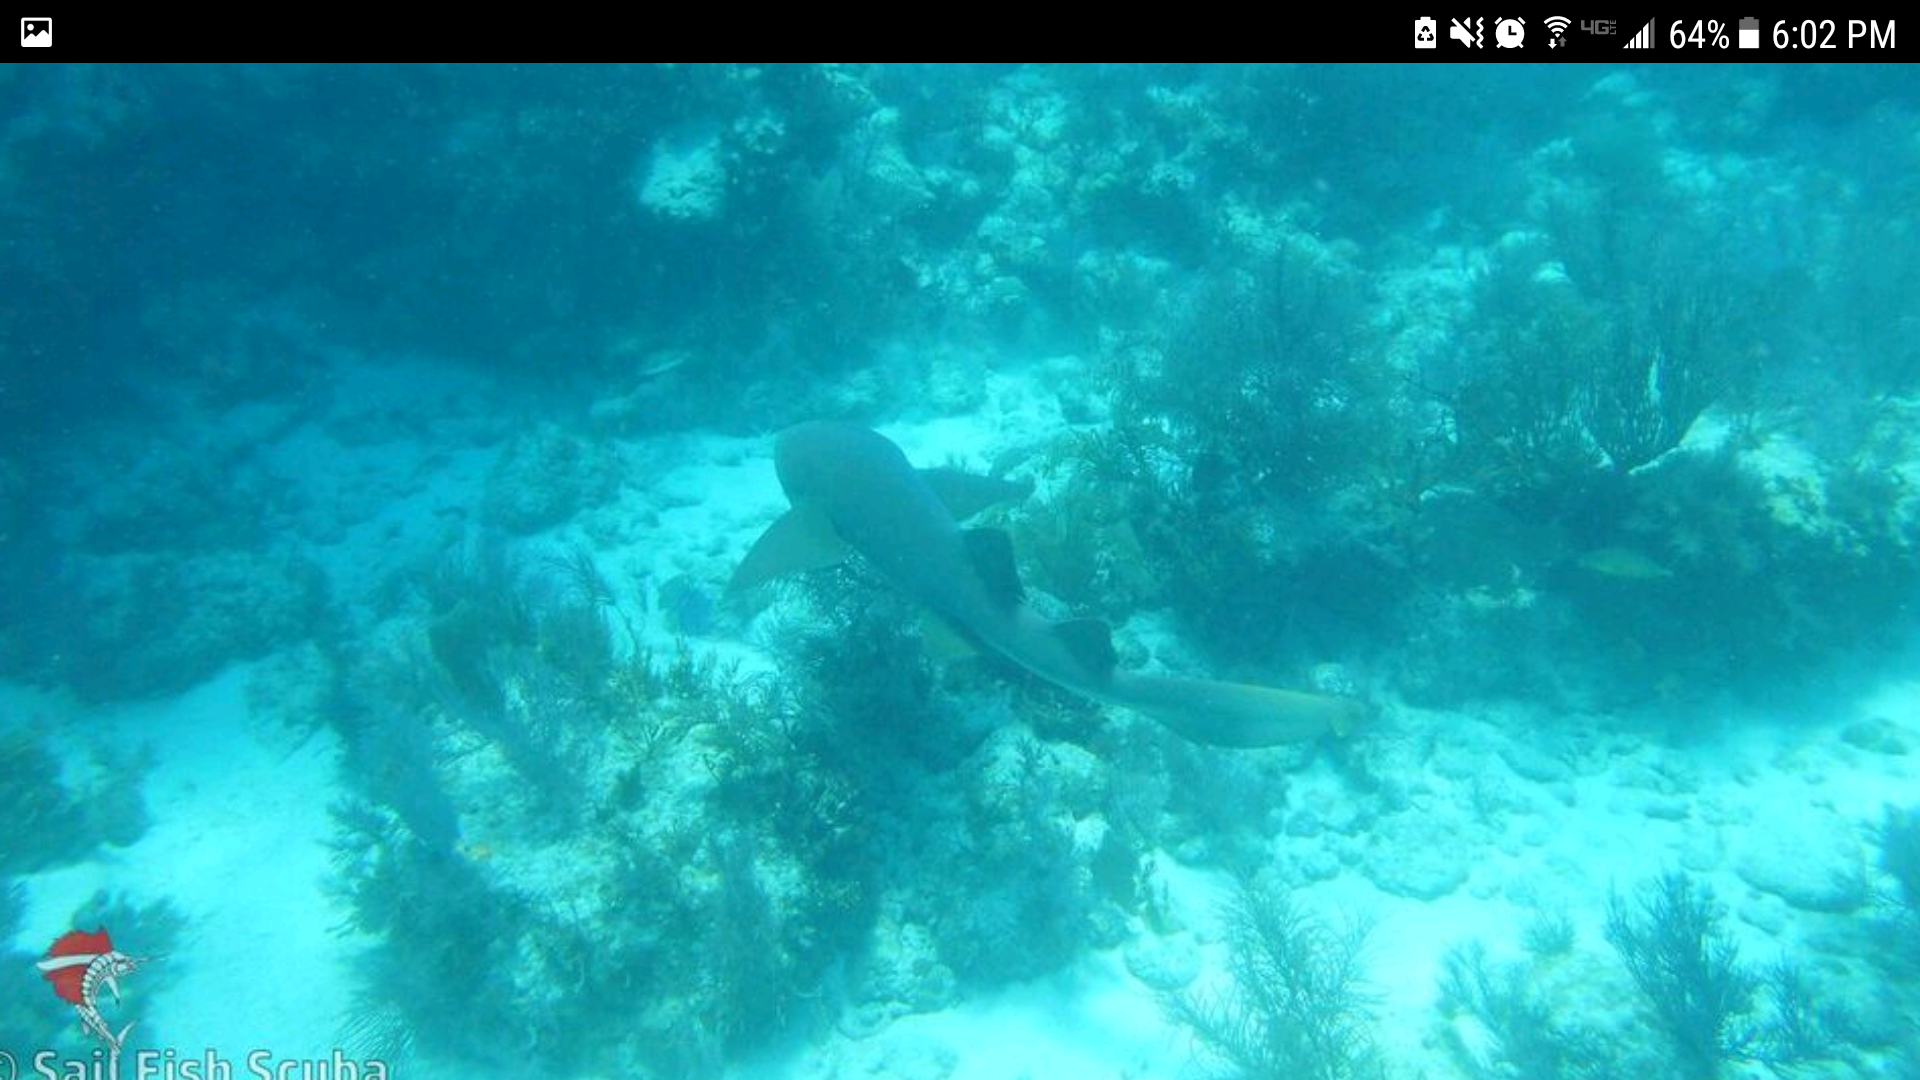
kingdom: Animalia
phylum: Chordata
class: Elasmobranchii
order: Orectolobiformes
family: Ginglymostomatidae
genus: Ginglymostoma
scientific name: Ginglymostoma cirratum
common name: Nurse shark
